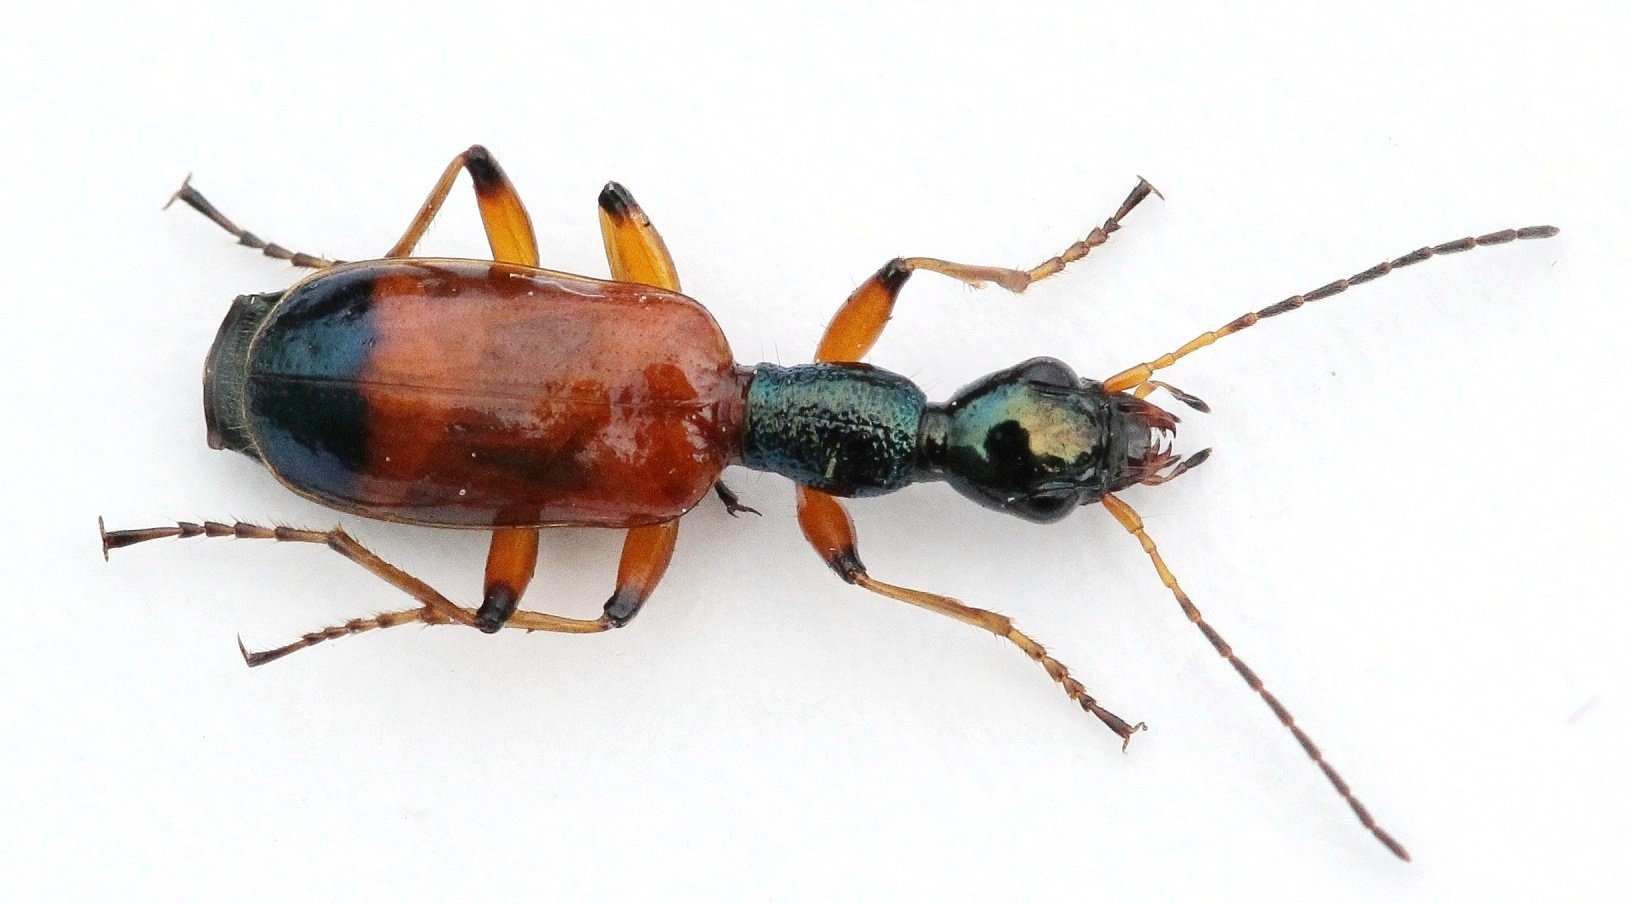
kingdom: Animalia
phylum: Arthropoda
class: Insecta
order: Coleoptera
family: Carabidae
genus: Odacantha
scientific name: Odacantha melanura
